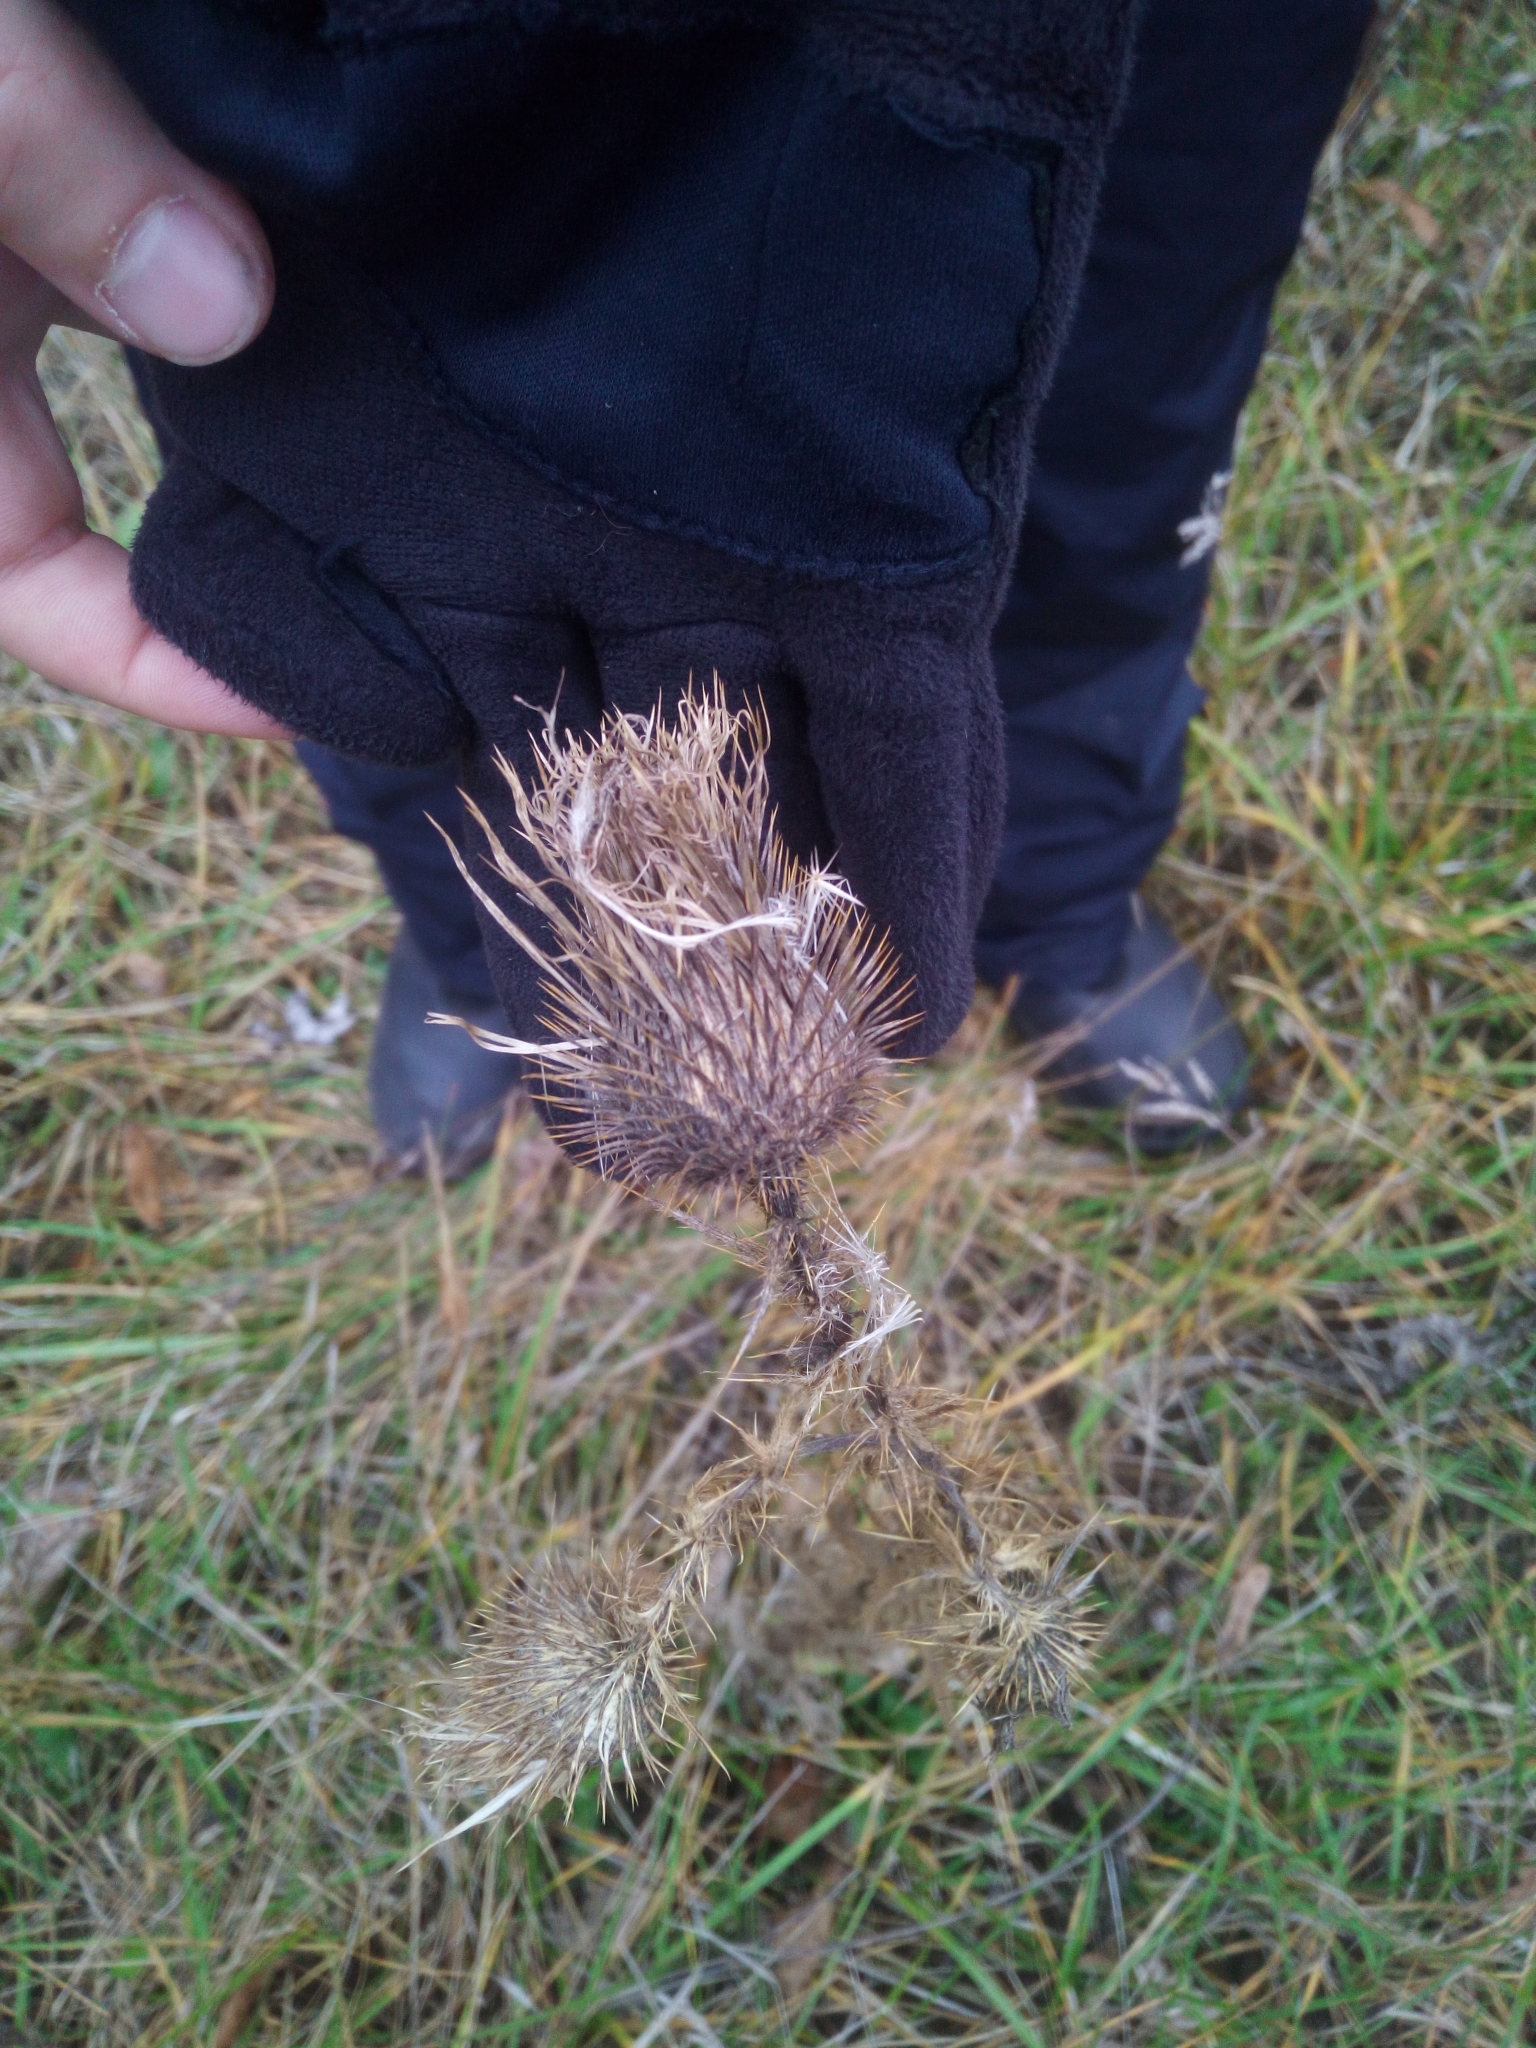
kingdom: Plantae
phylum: Tracheophyta
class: Magnoliopsida
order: Asterales
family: Asteraceae
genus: Cirsium
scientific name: Cirsium vulgare
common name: Bull thistle
